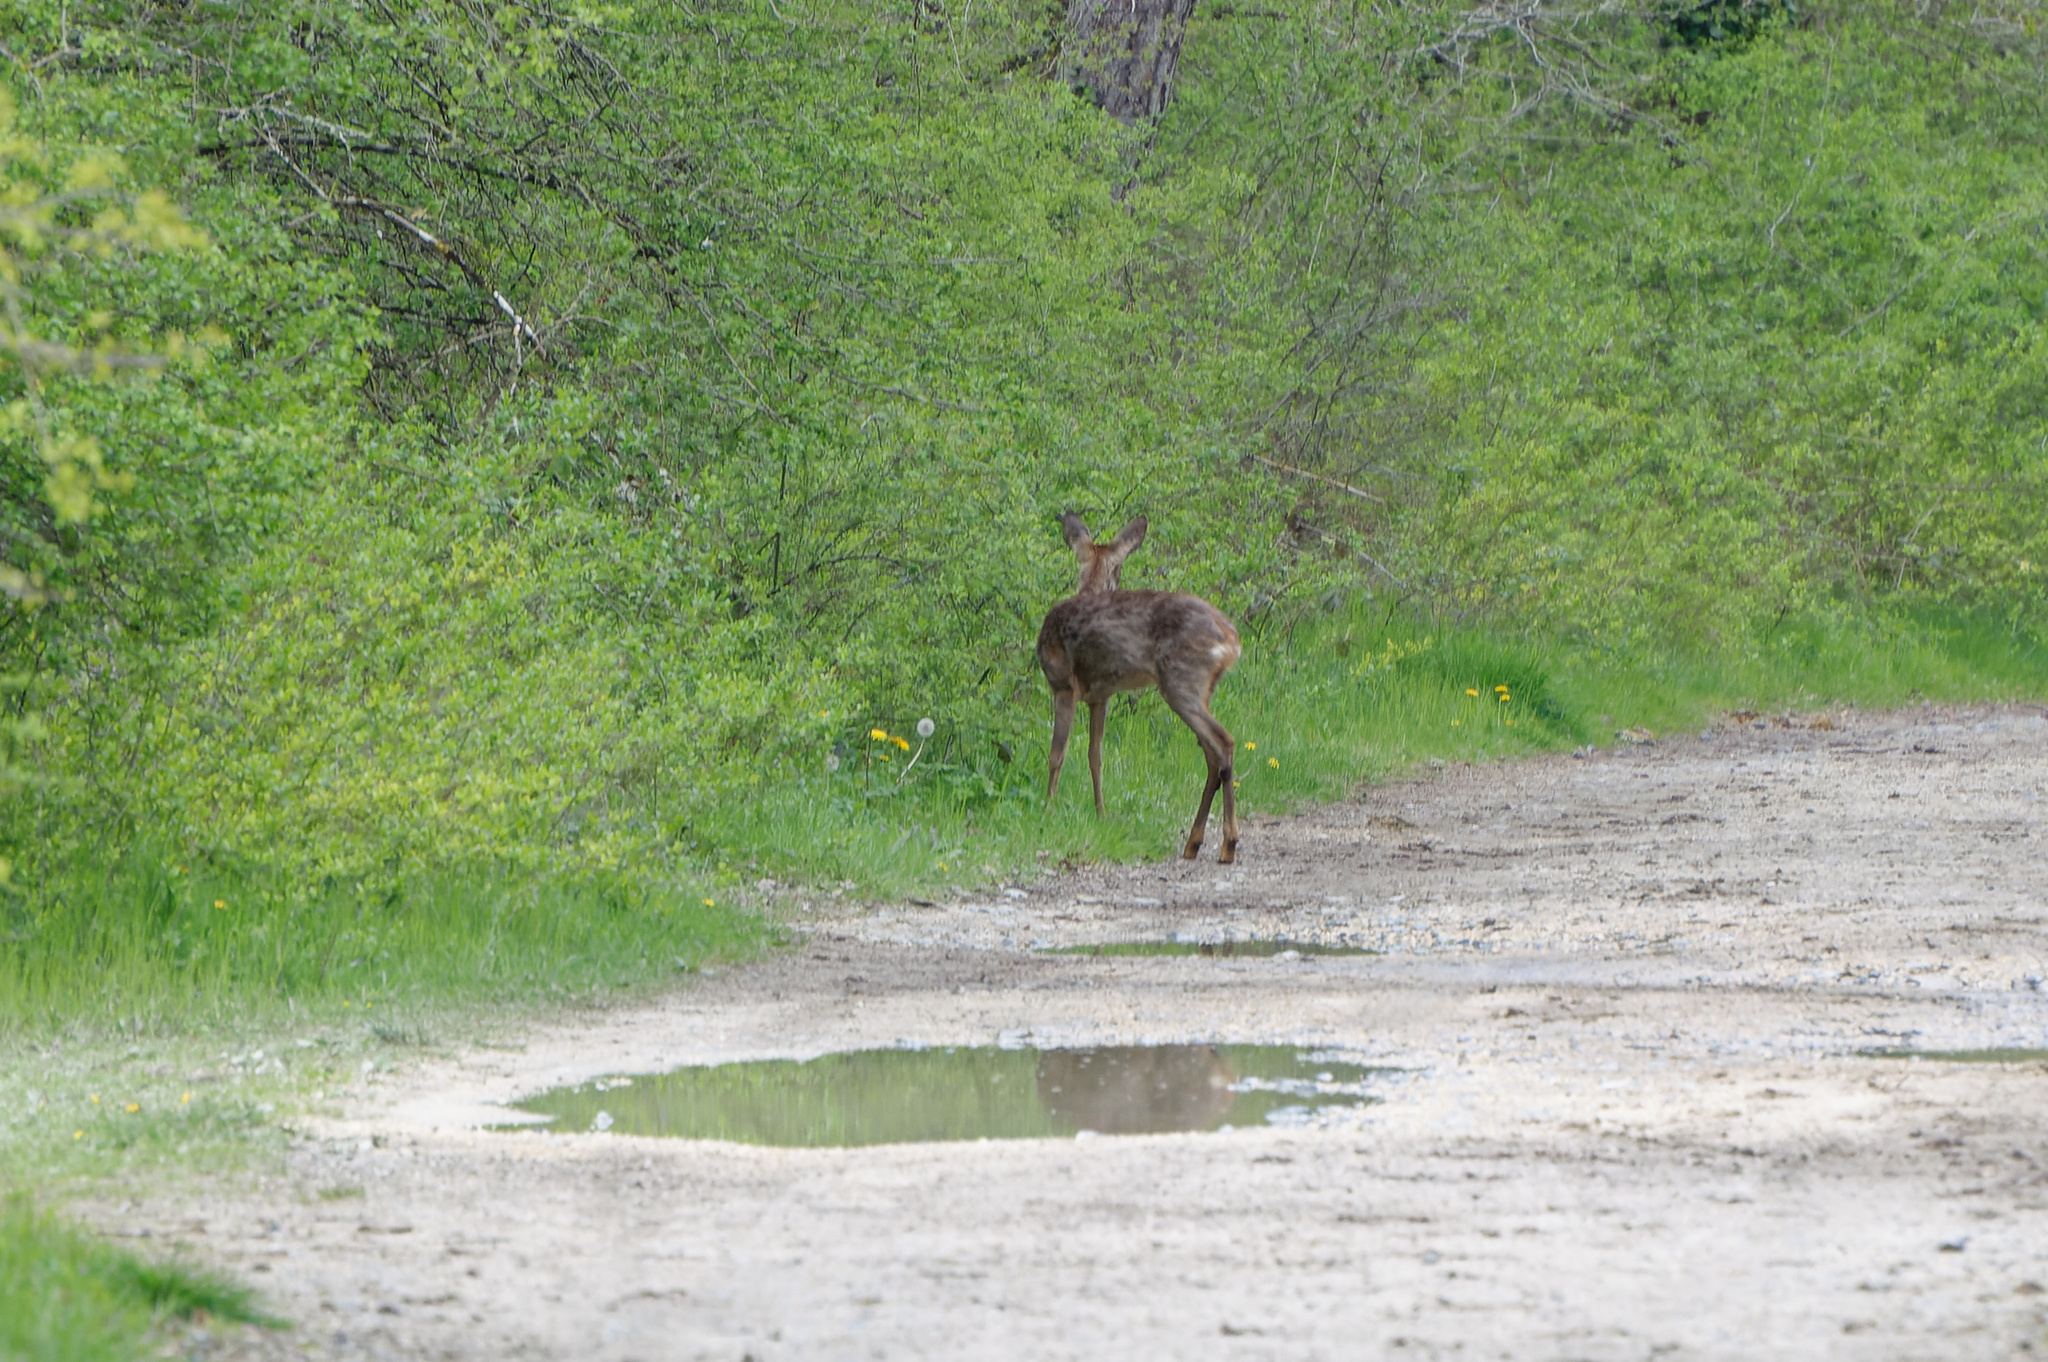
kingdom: Animalia
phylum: Chordata
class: Mammalia
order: Artiodactyla
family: Cervidae
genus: Capreolus
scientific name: Capreolus capreolus
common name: Western roe deer
